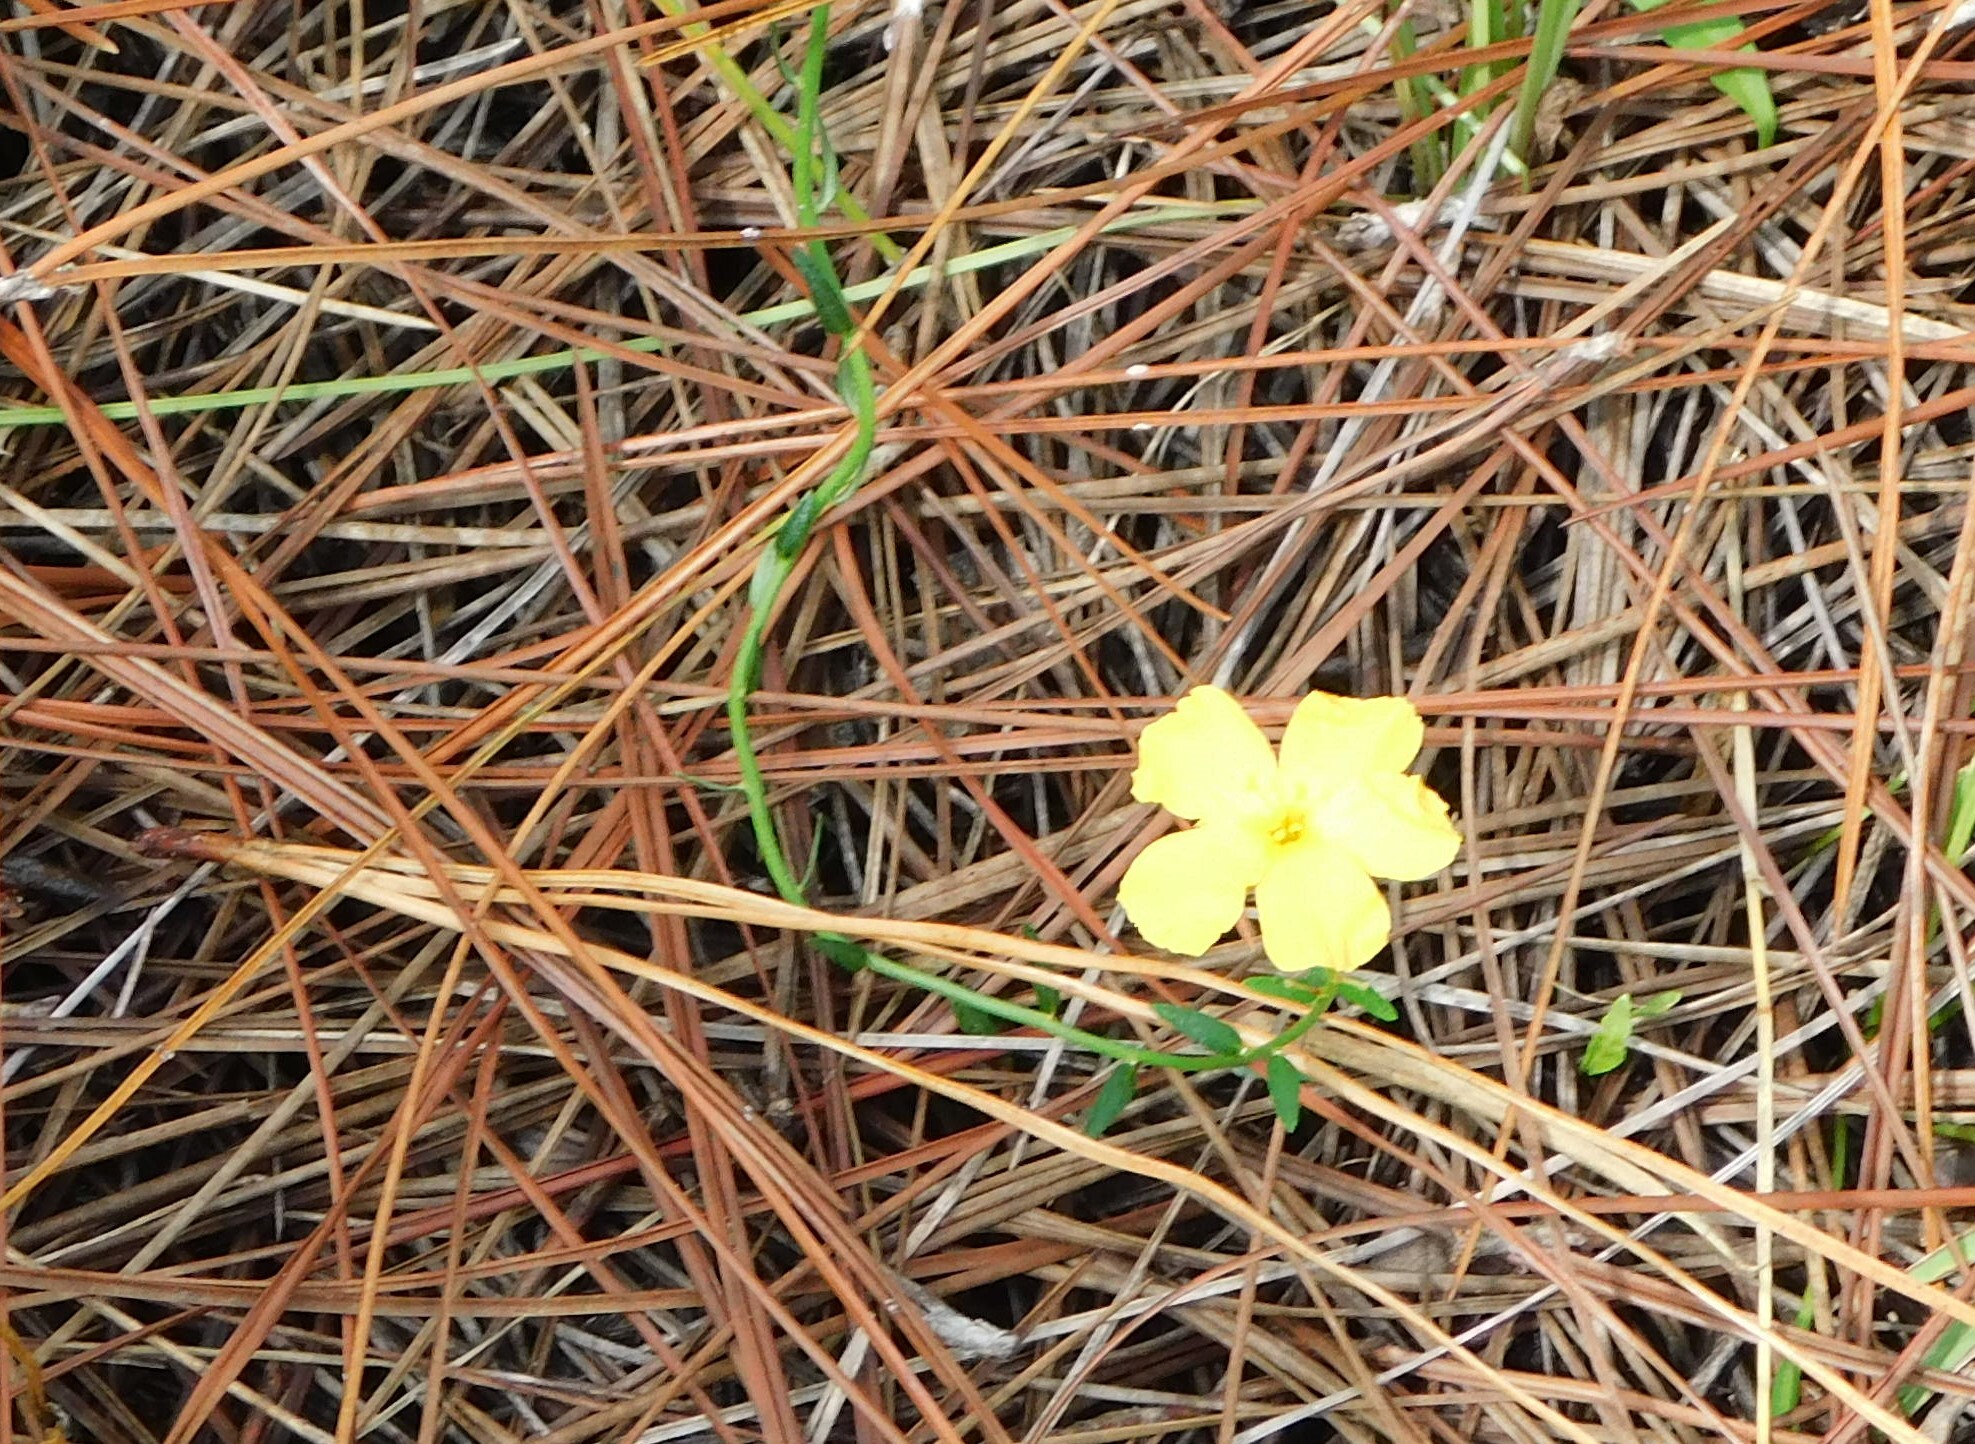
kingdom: Plantae
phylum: Tracheophyta
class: Magnoliopsida
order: Malpighiales
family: Turneraceae
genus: Piriqueta
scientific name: Piriqueta cistoides
